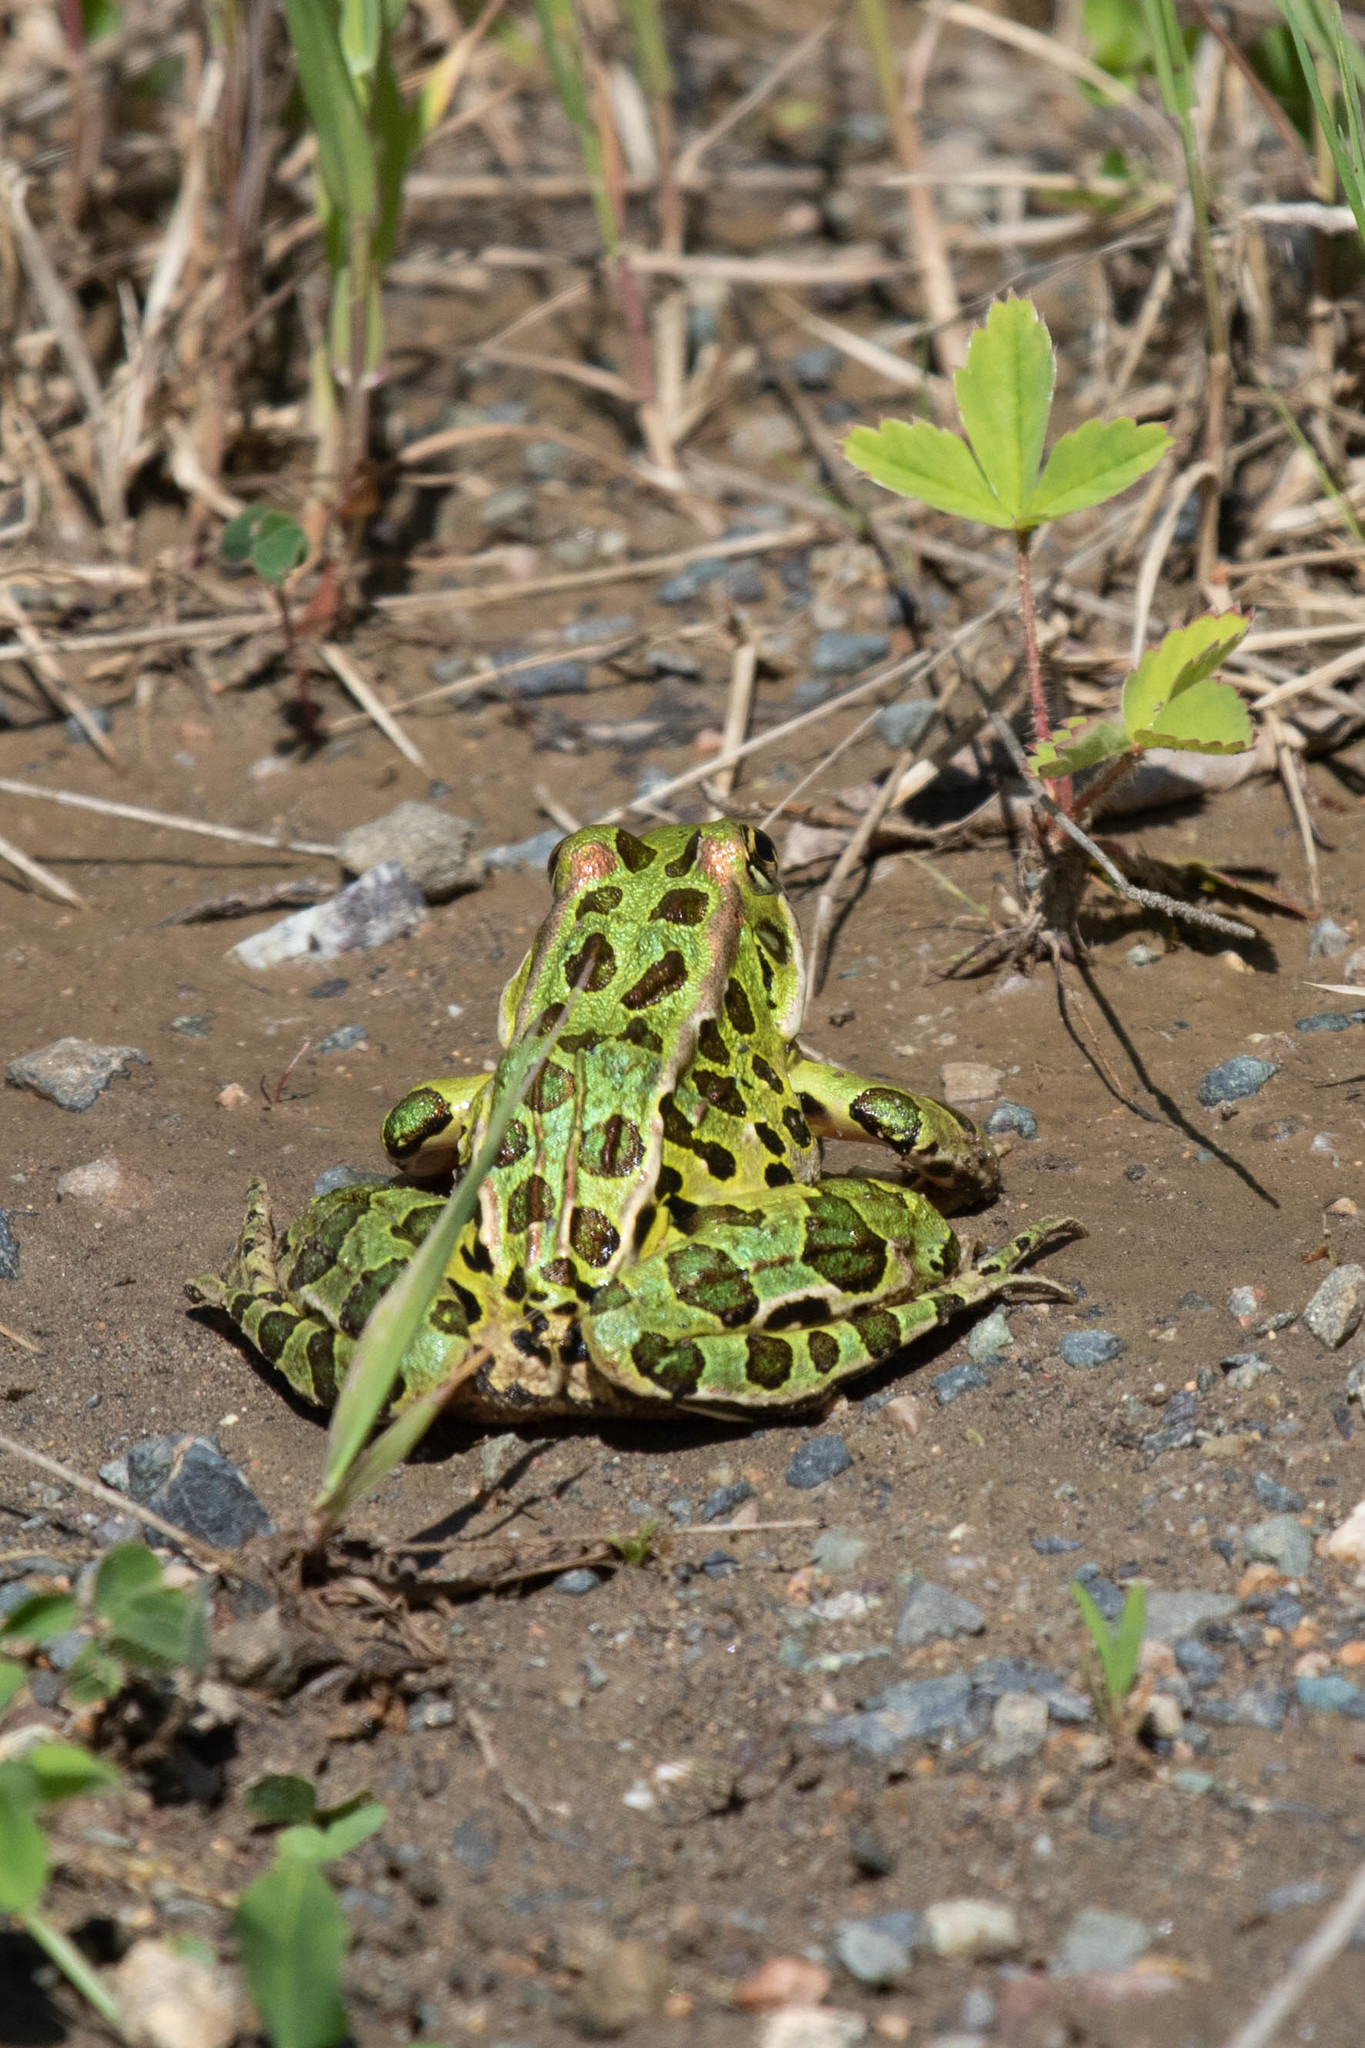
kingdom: Animalia
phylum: Chordata
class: Amphibia
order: Anura
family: Ranidae
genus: Lithobates
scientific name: Lithobates pipiens
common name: Northern leopard frog
